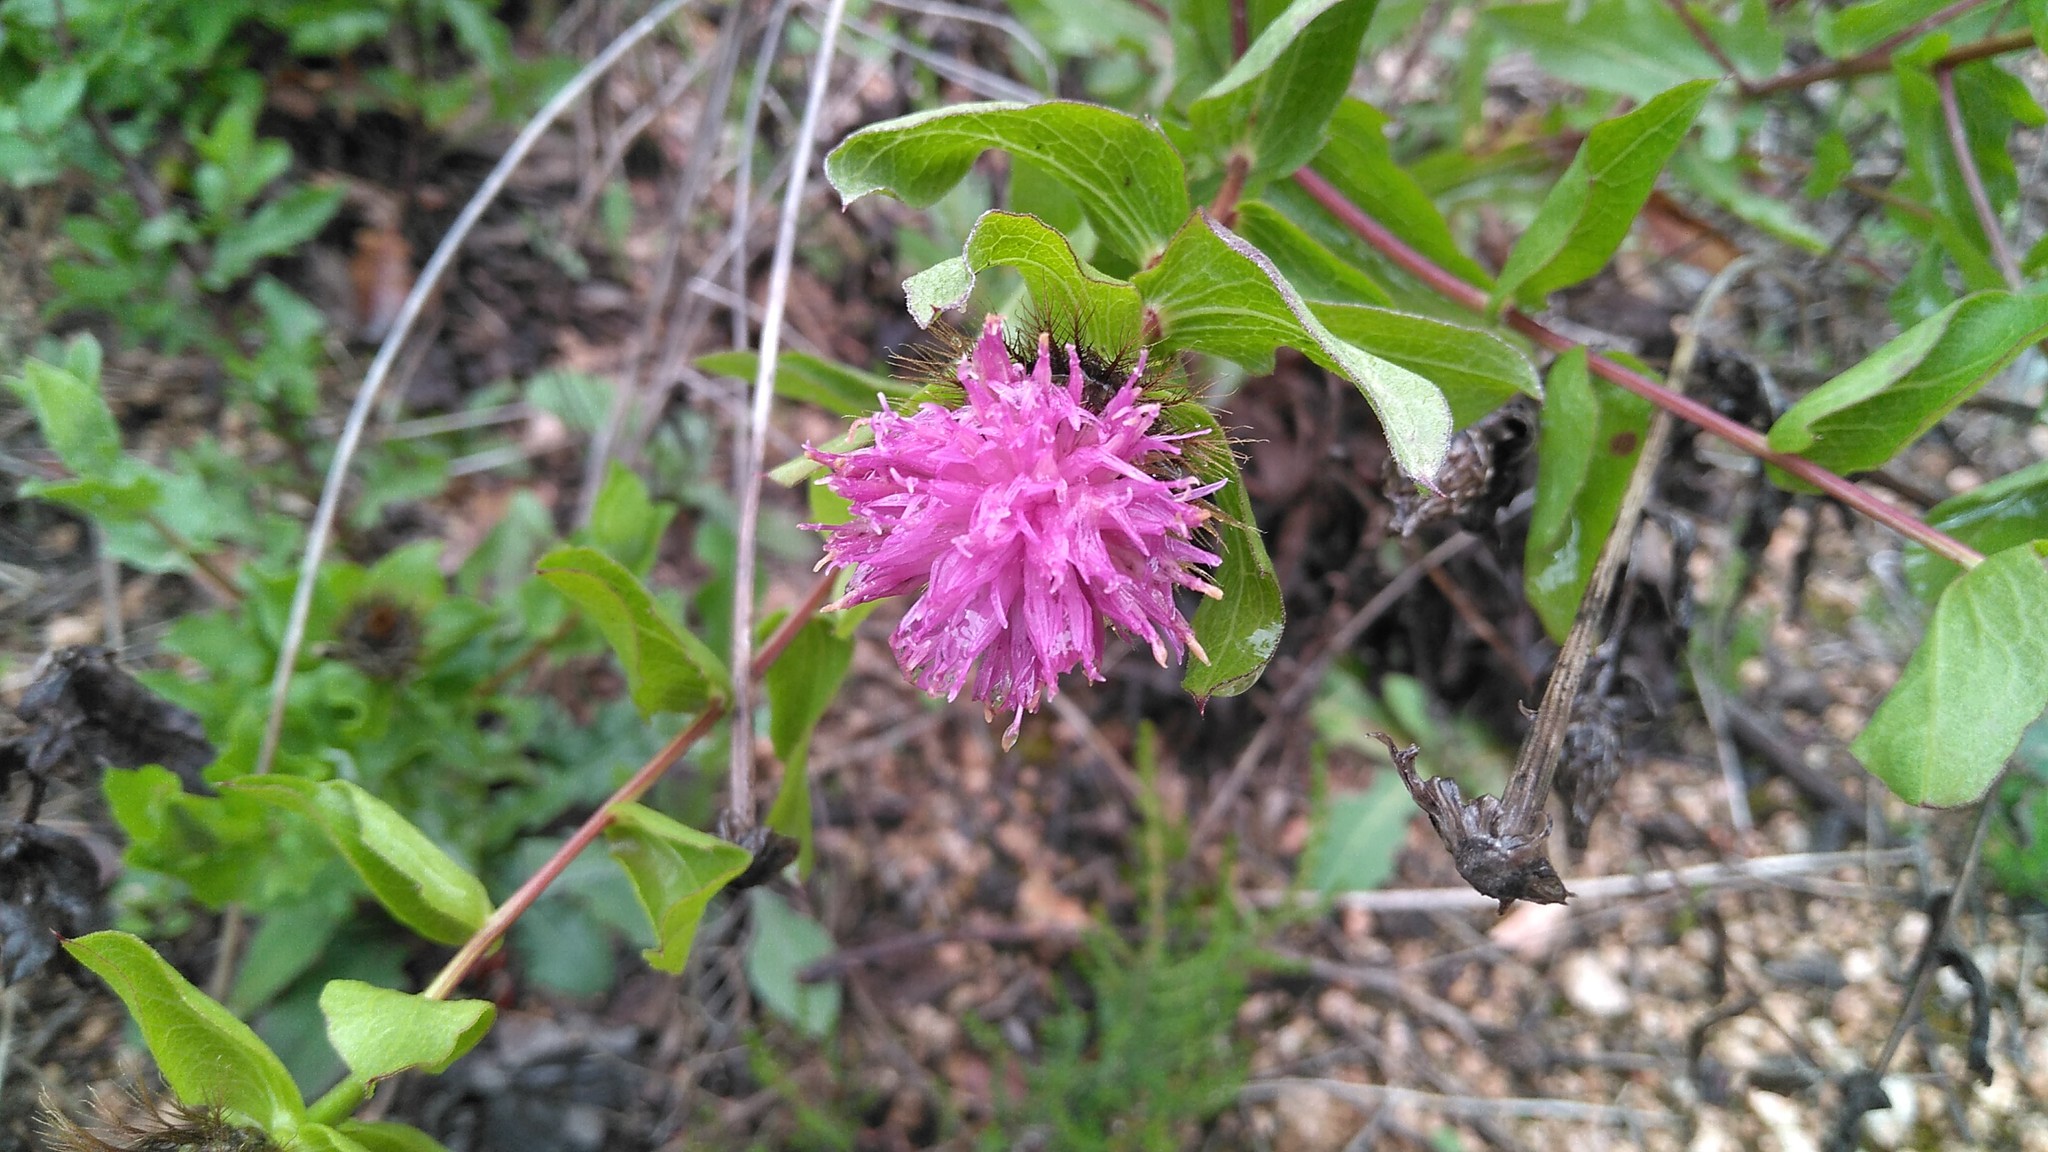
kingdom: Plantae
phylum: Tracheophyta
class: Magnoliopsida
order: Asterales
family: Asteraceae
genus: Centaurea
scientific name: Centaurea pectinata
